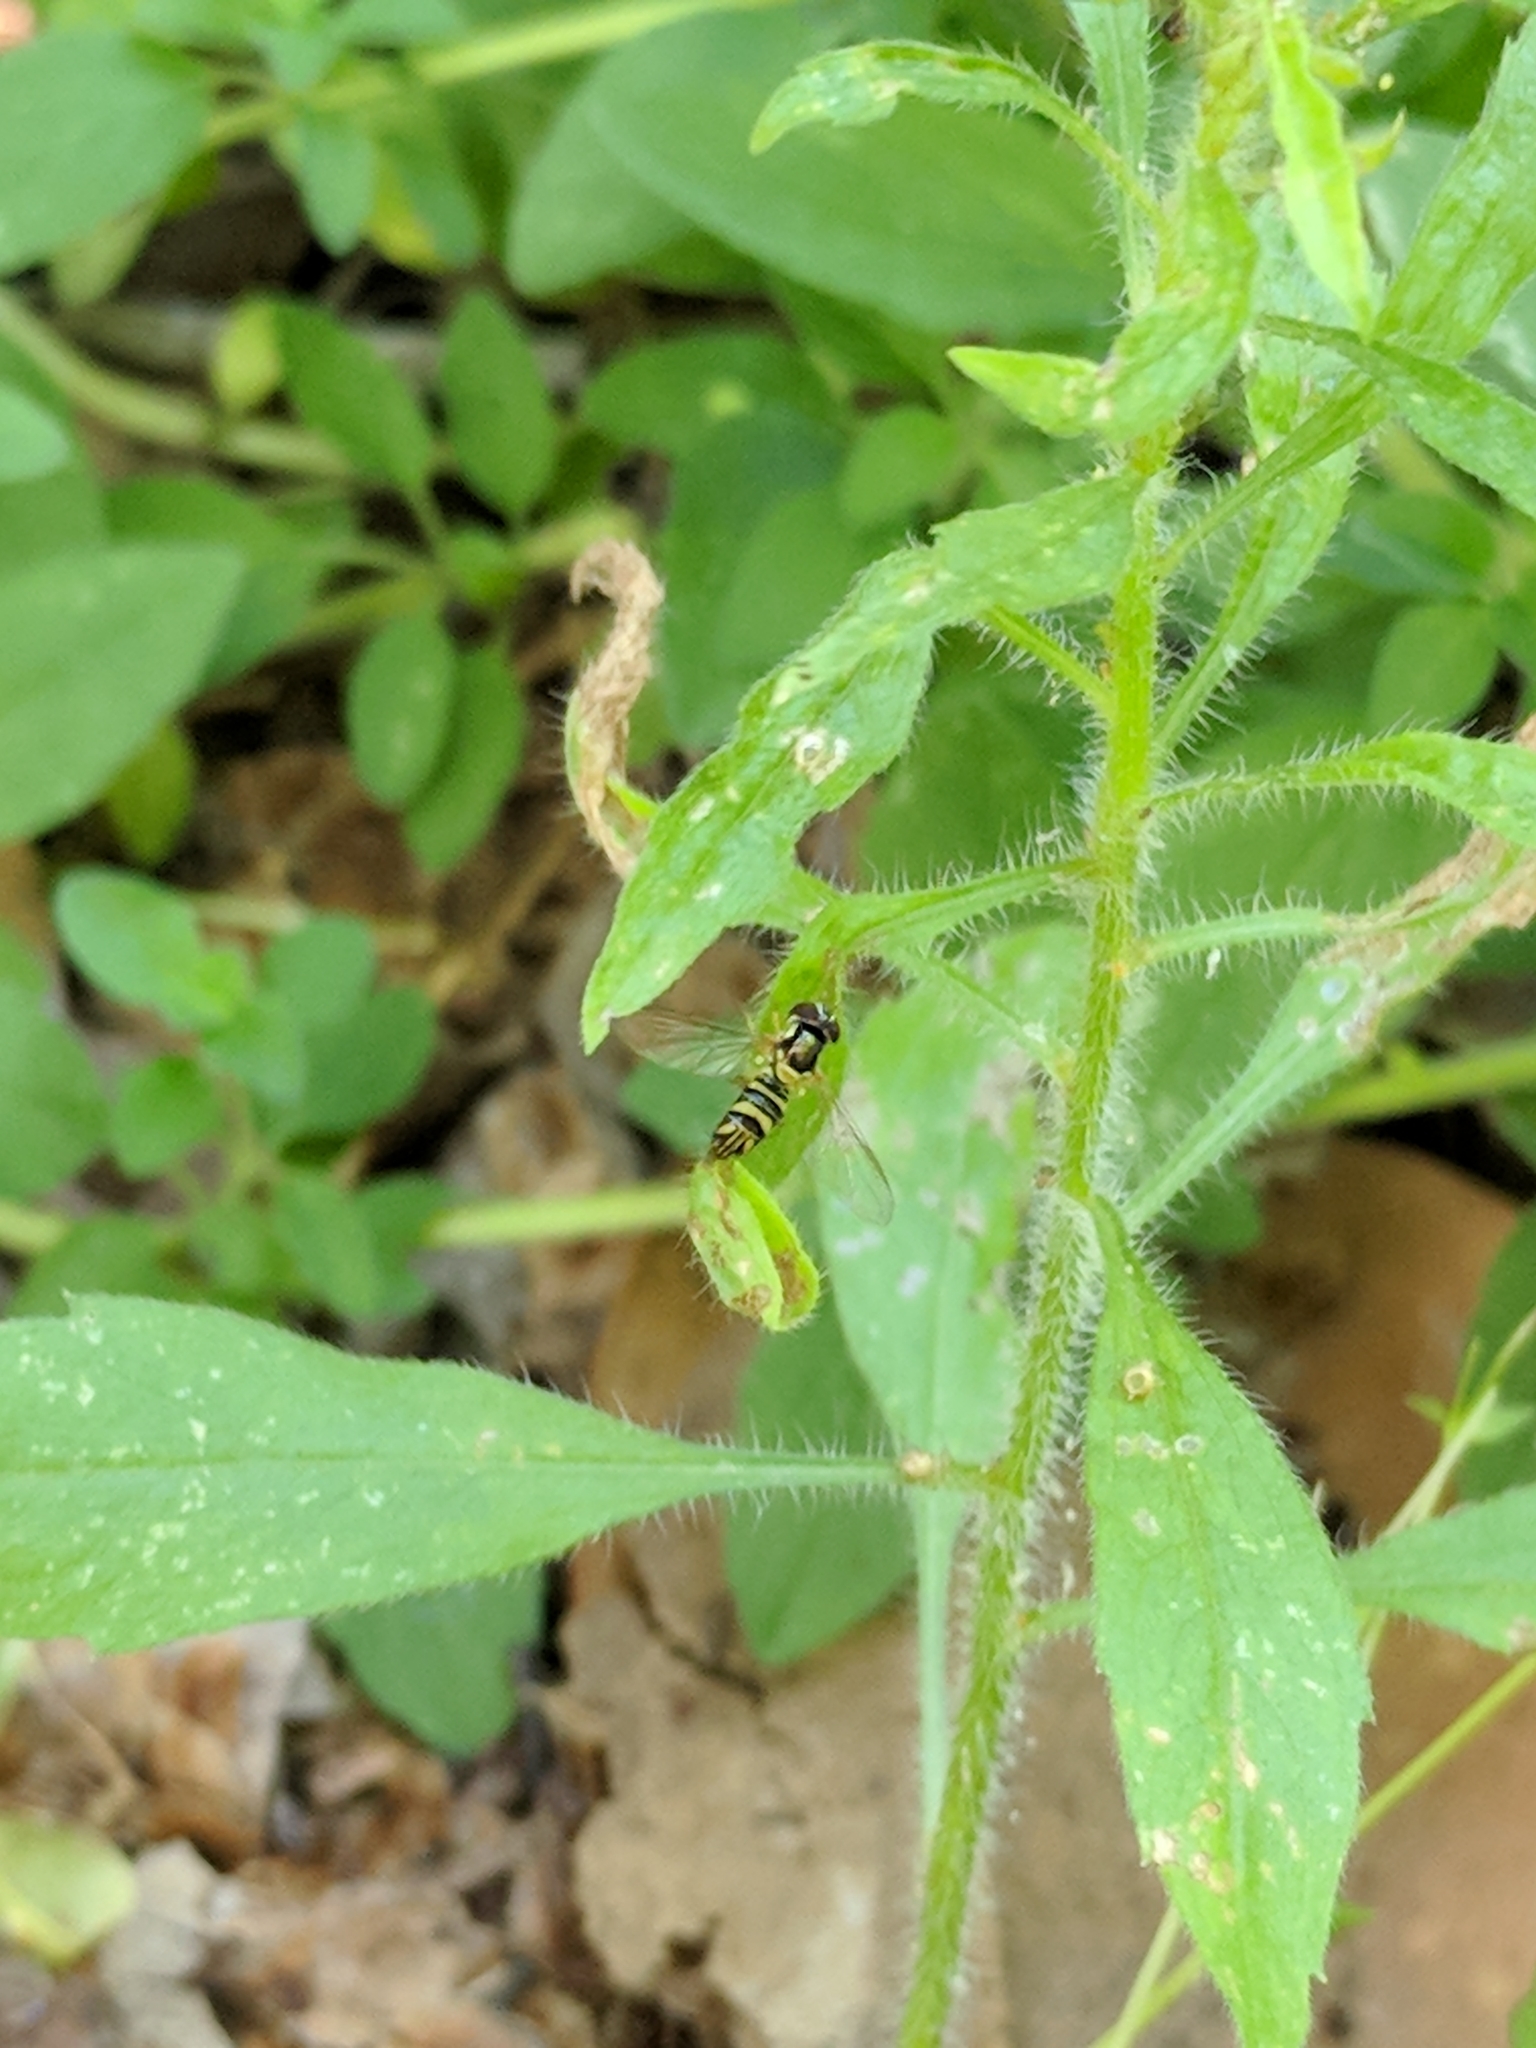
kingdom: Animalia
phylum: Arthropoda
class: Insecta
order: Diptera
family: Syrphidae
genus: Allograpta
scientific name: Allograpta obliqua
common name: Common oblique syrphid
